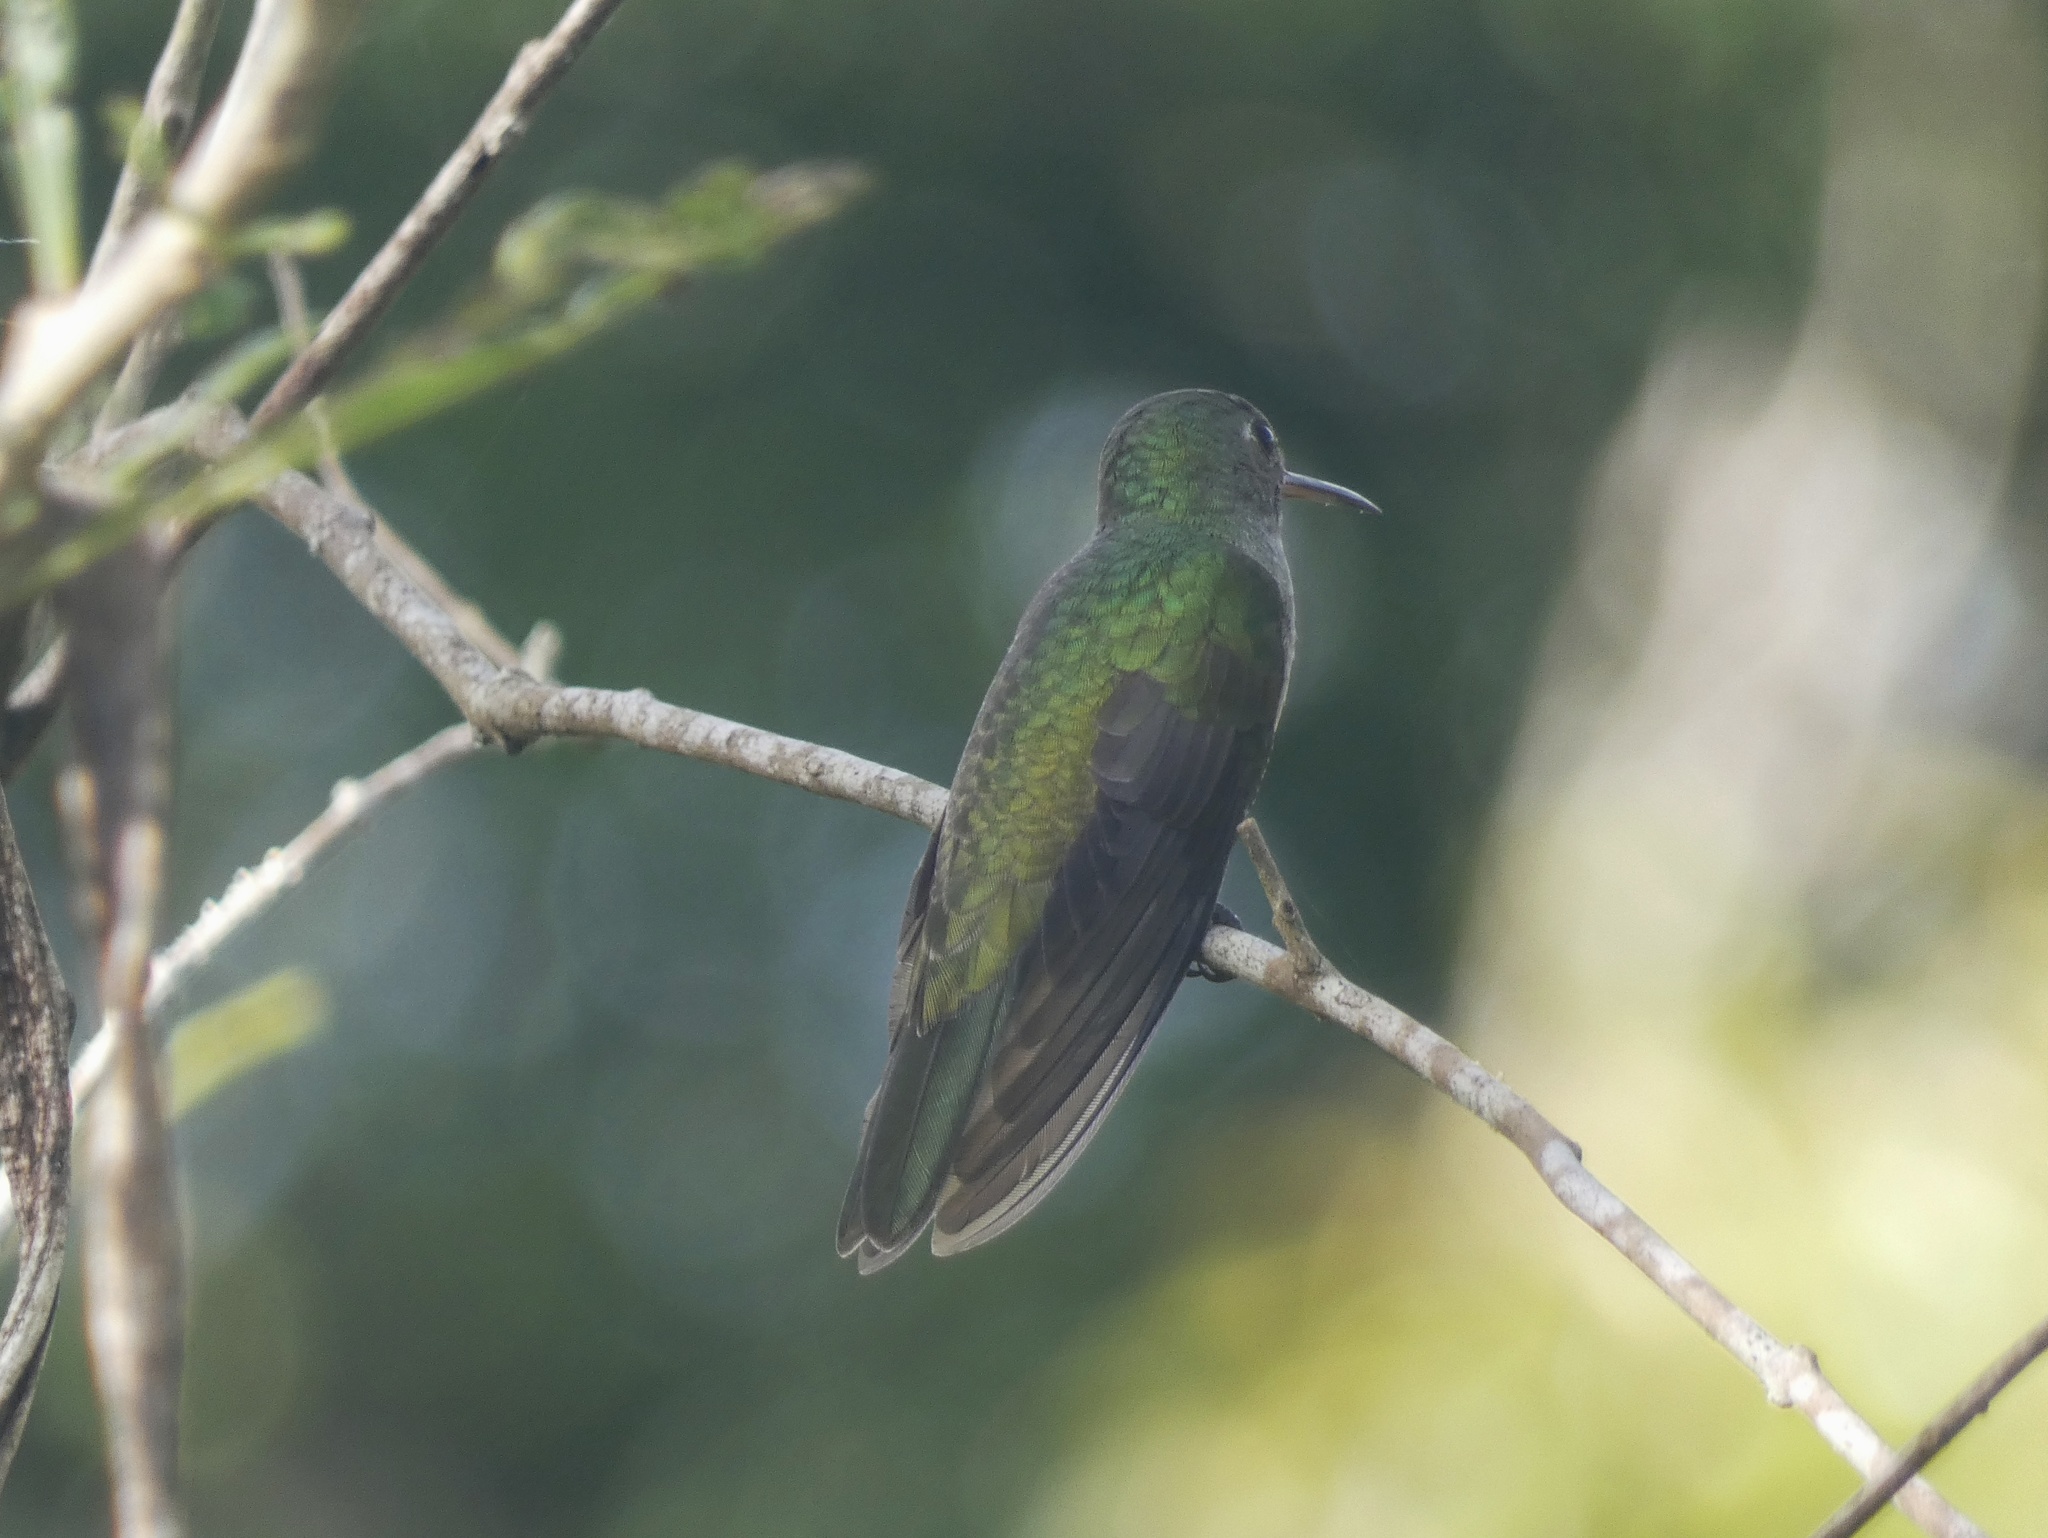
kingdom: Animalia
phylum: Chordata
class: Aves
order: Apodiformes
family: Trochilidae
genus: Phaeochroa
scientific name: Phaeochroa cuvierii
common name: Scaly-breasted hummingbird
